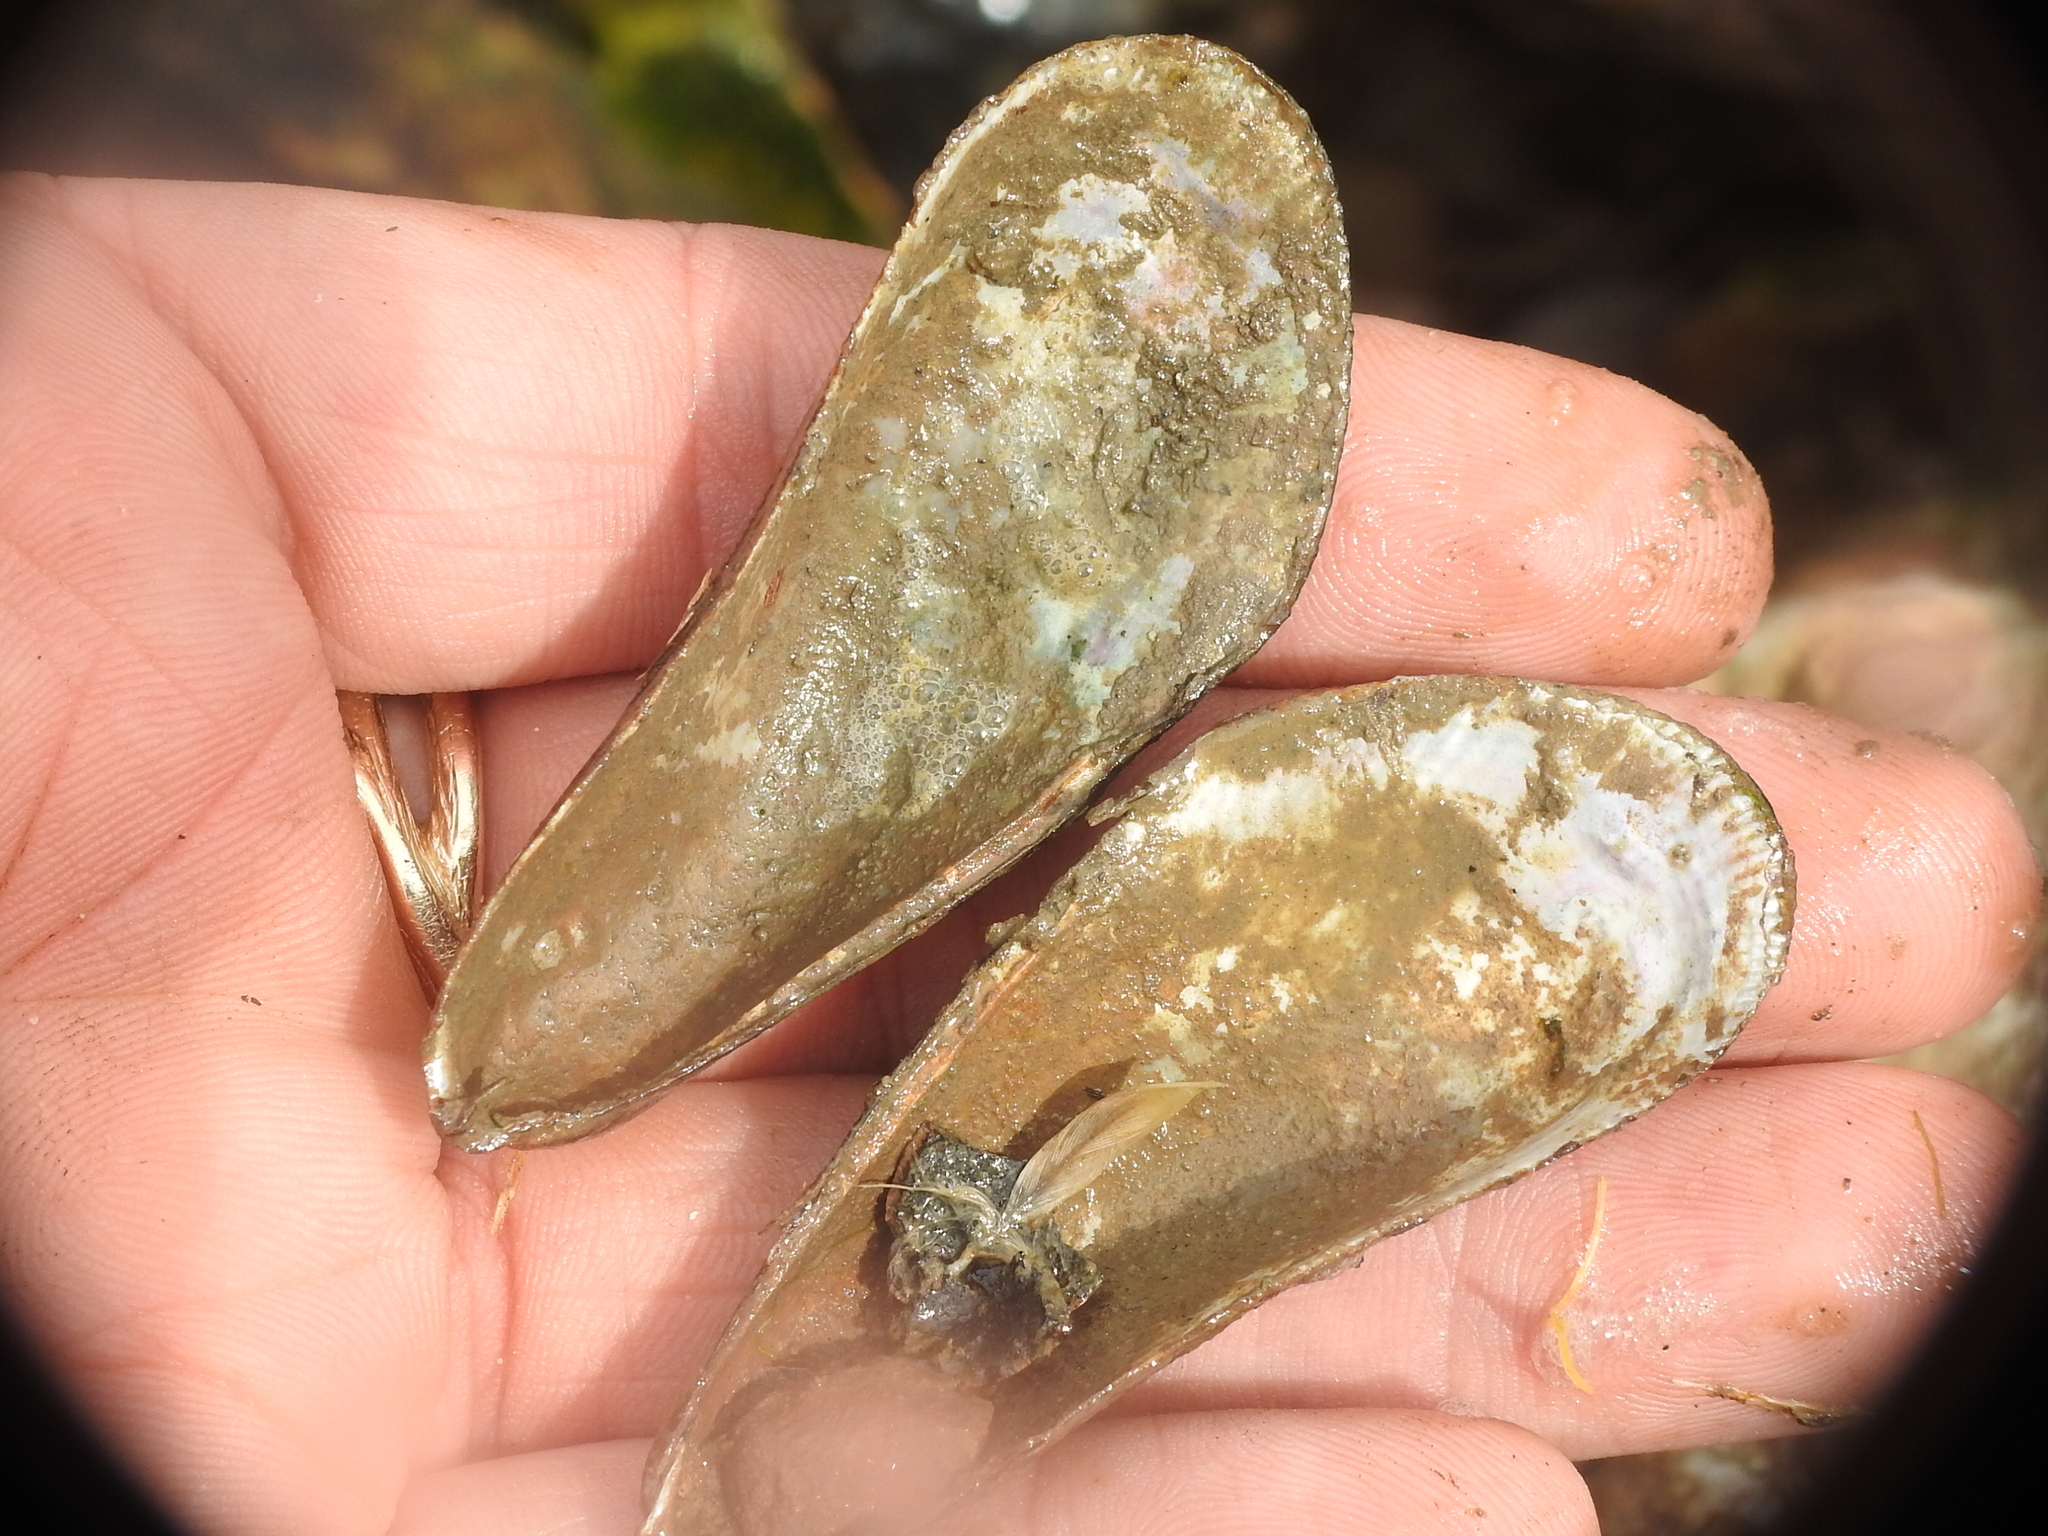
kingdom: Animalia
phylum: Mollusca
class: Bivalvia
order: Mytilida
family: Mytilidae
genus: Geukensia
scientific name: Geukensia granosissima
